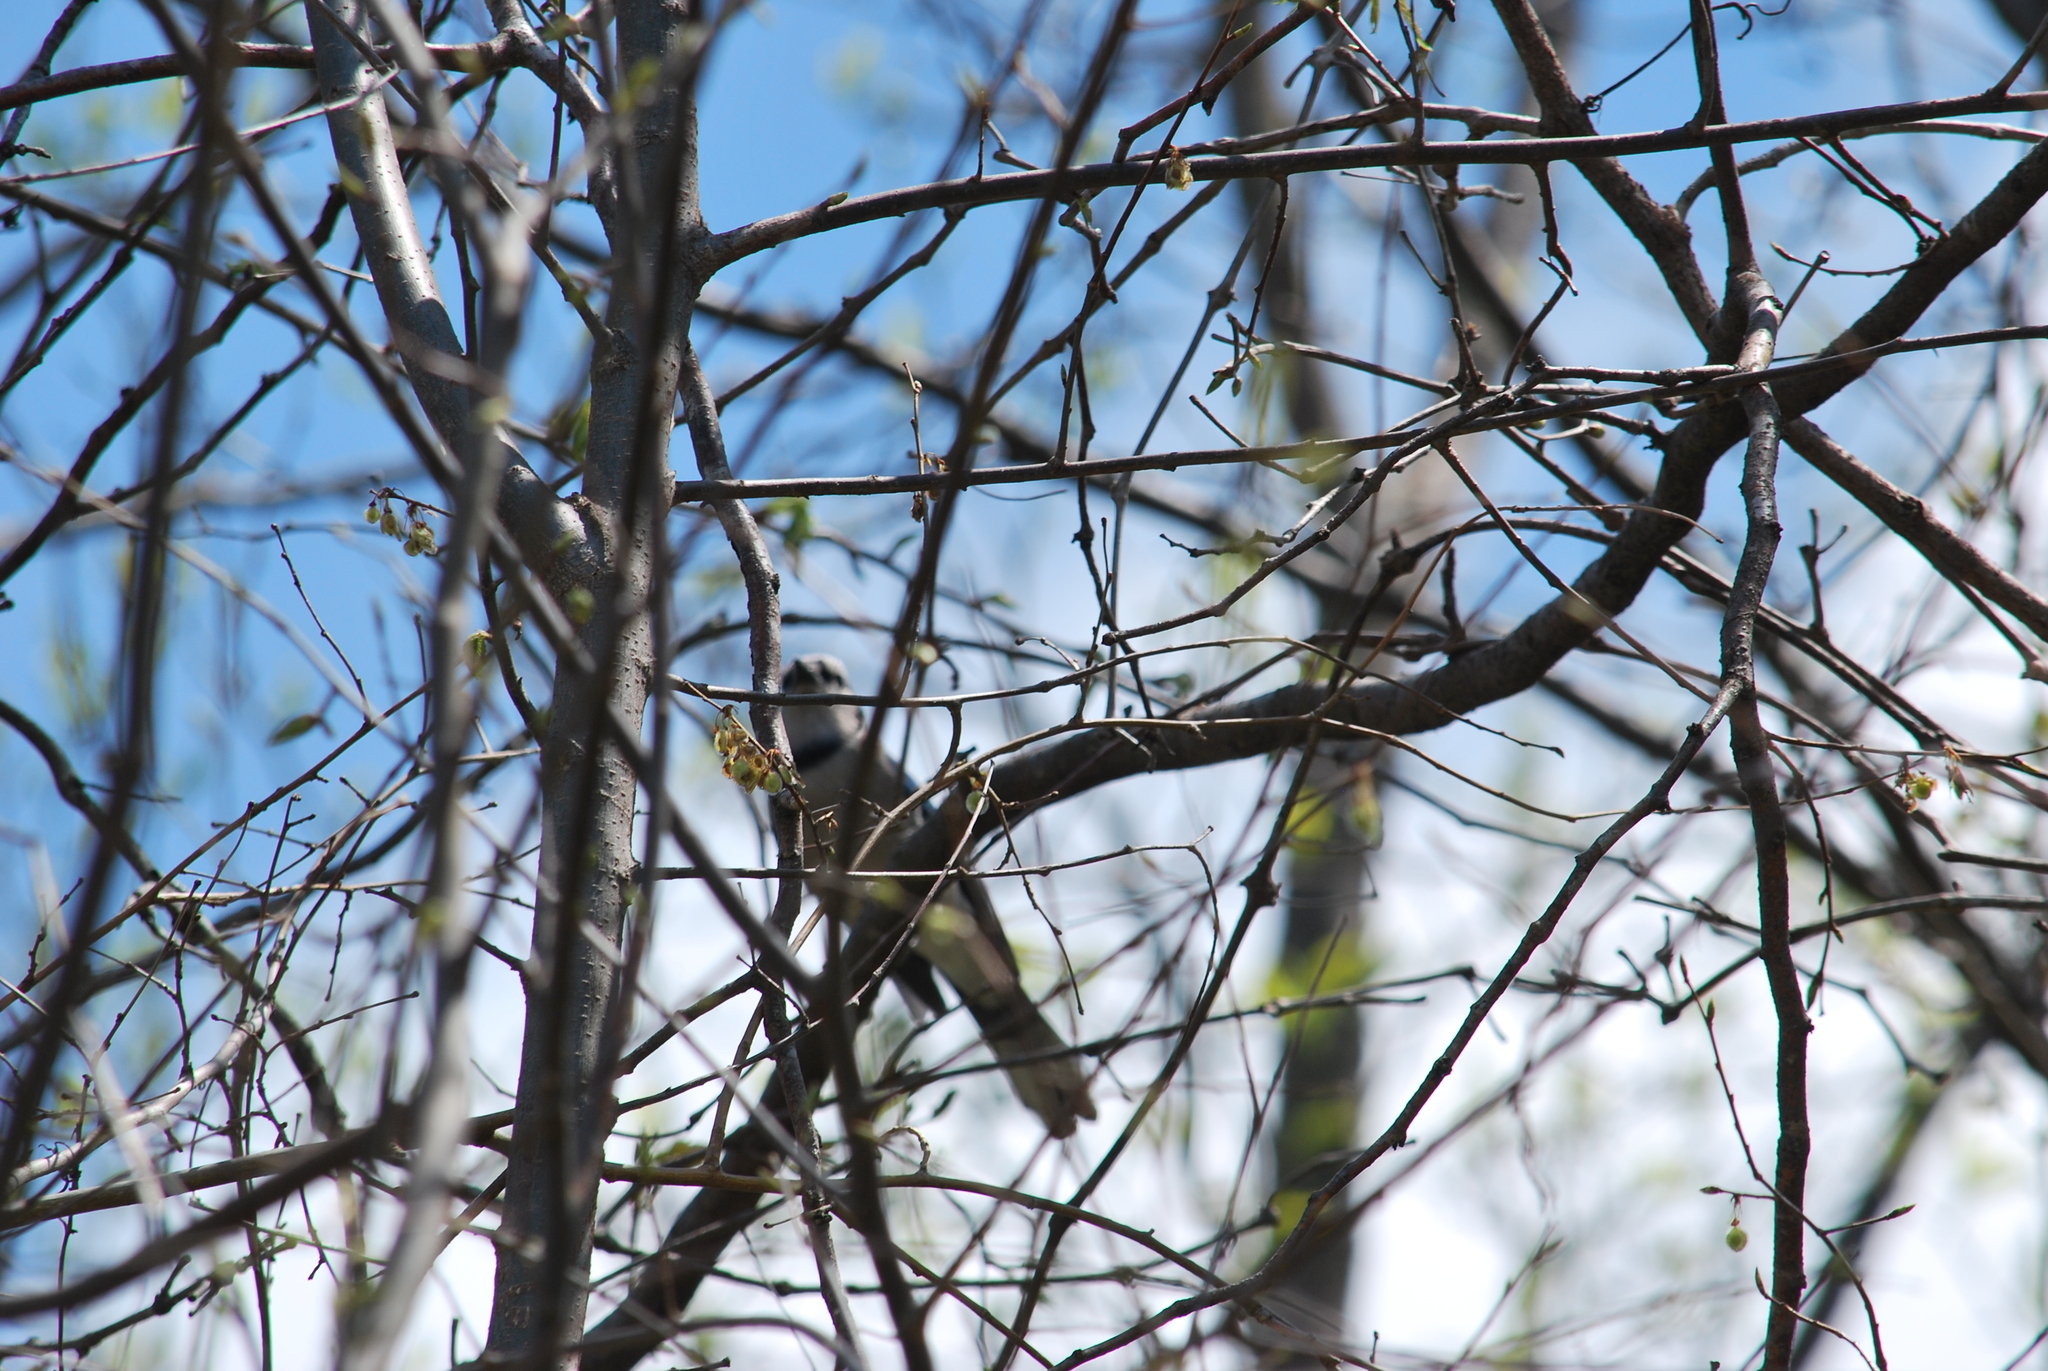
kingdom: Animalia
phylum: Chordata
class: Aves
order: Passeriformes
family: Corvidae
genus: Cyanocitta
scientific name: Cyanocitta cristata
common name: Blue jay
